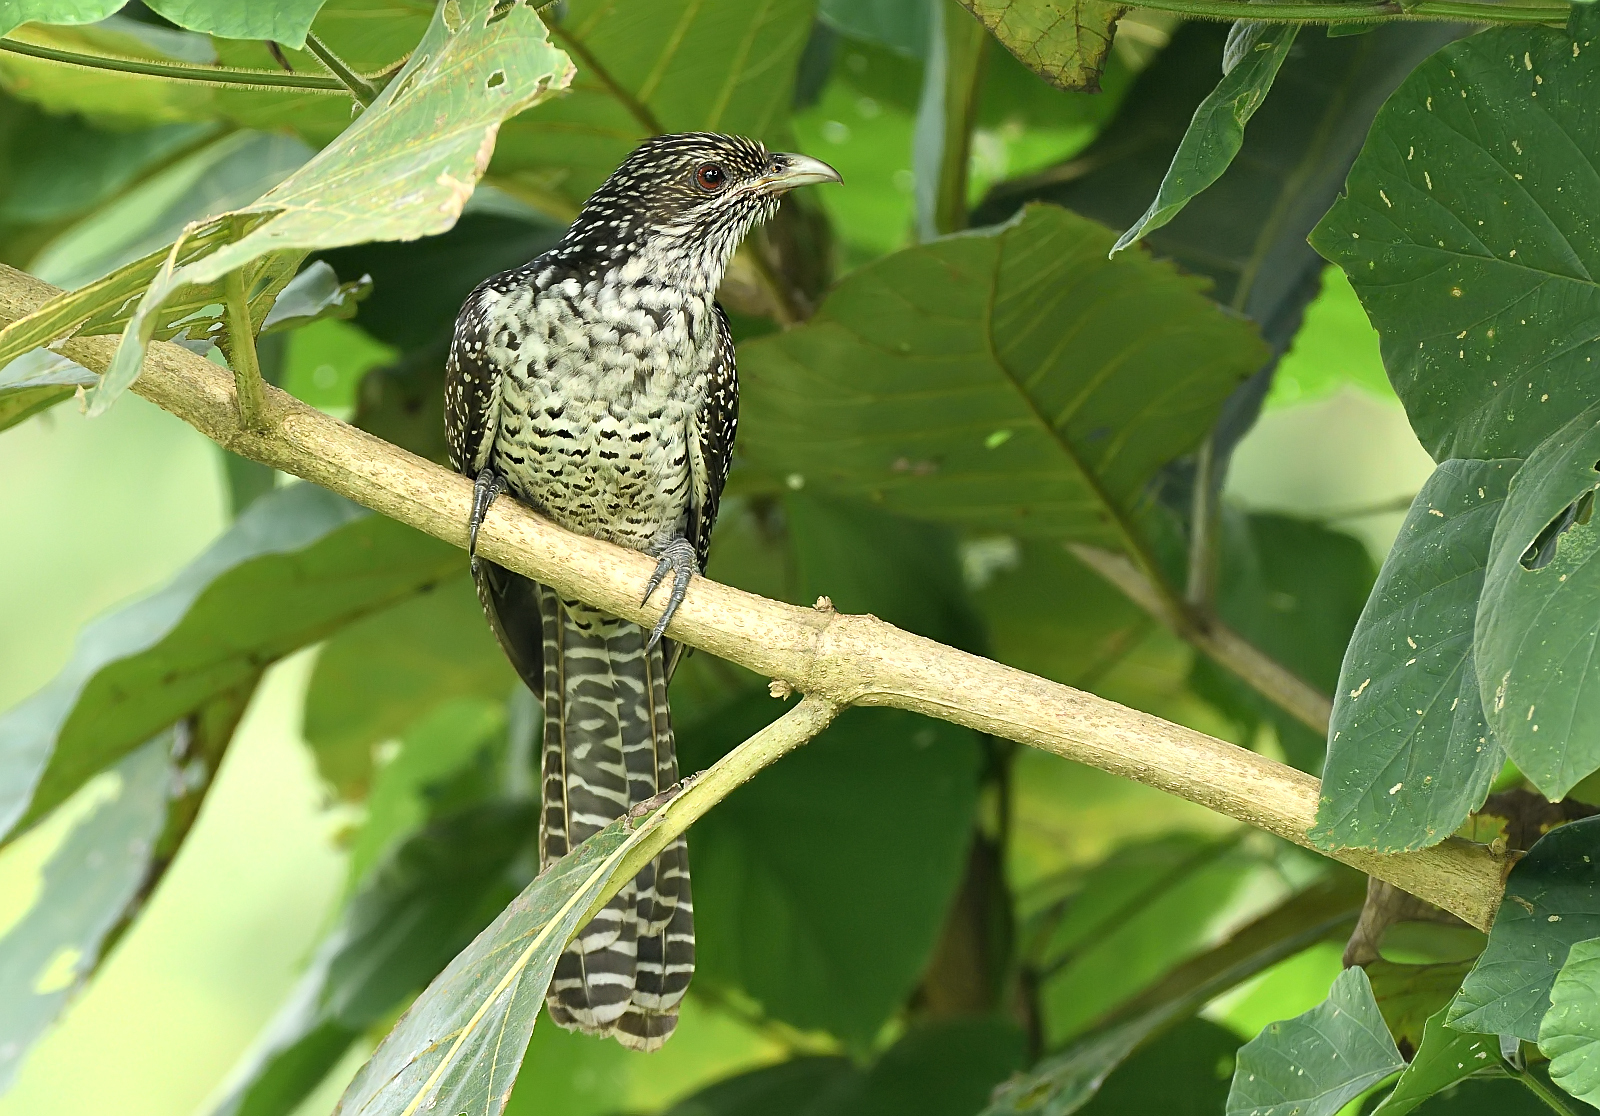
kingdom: Animalia
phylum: Chordata
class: Aves
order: Cuculiformes
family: Cuculidae
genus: Eudynamys
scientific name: Eudynamys scolopaceus
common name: Asian koel
